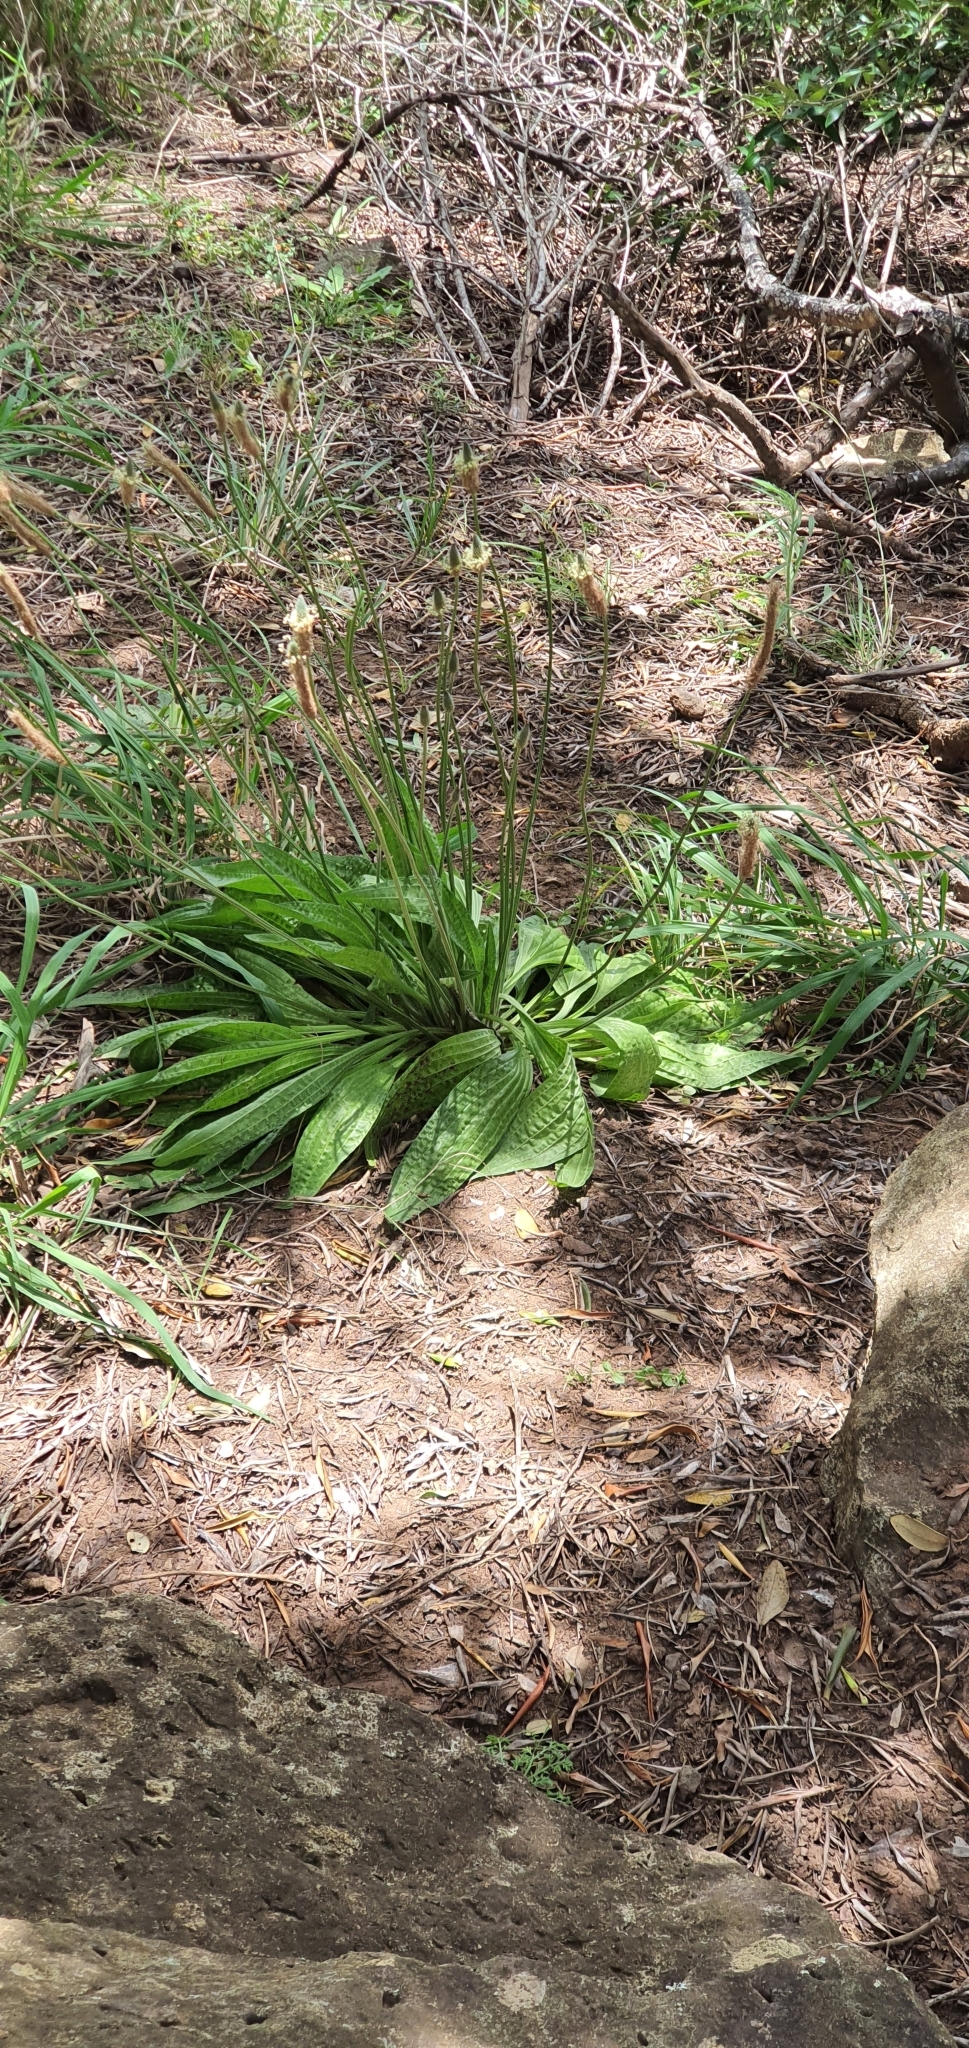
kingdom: Plantae
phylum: Tracheophyta
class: Magnoliopsida
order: Lamiales
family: Plantaginaceae
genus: Plantago
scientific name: Plantago lanceolata
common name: Ribwort plantain
